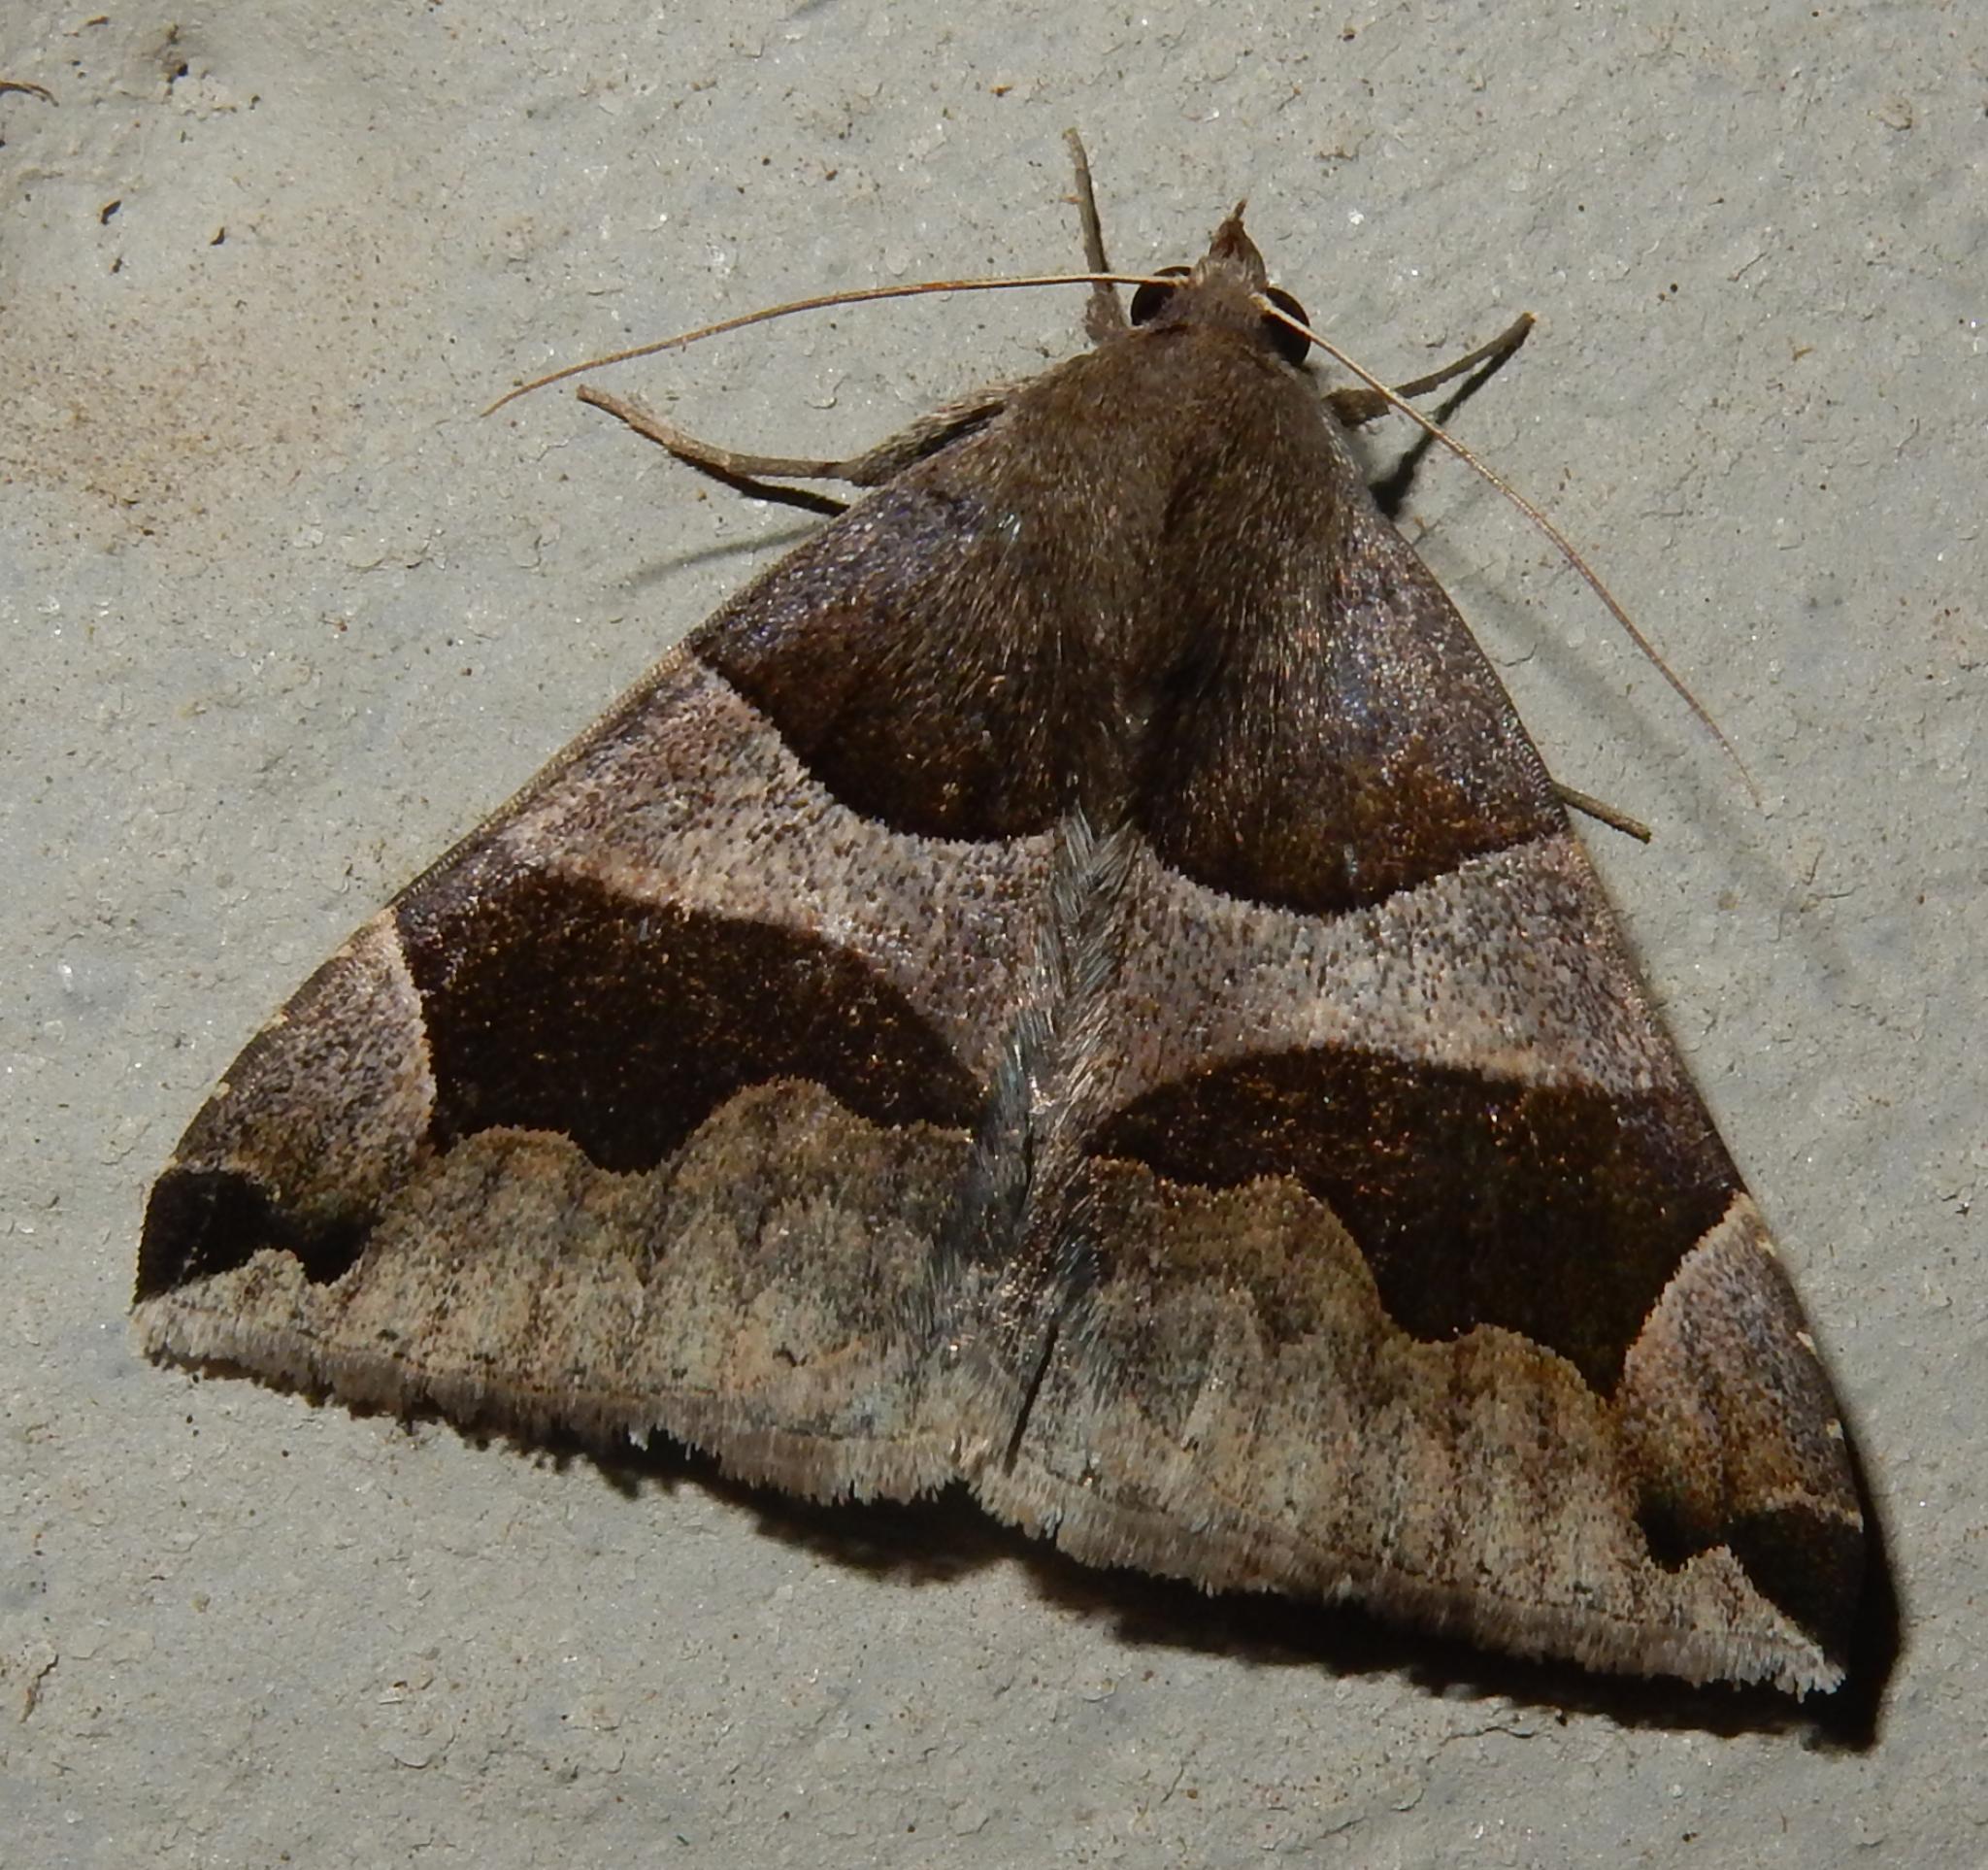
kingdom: Animalia
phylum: Arthropoda
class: Insecta
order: Lepidoptera
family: Erebidae
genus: Dysgonia
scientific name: Dysgonia torrida
